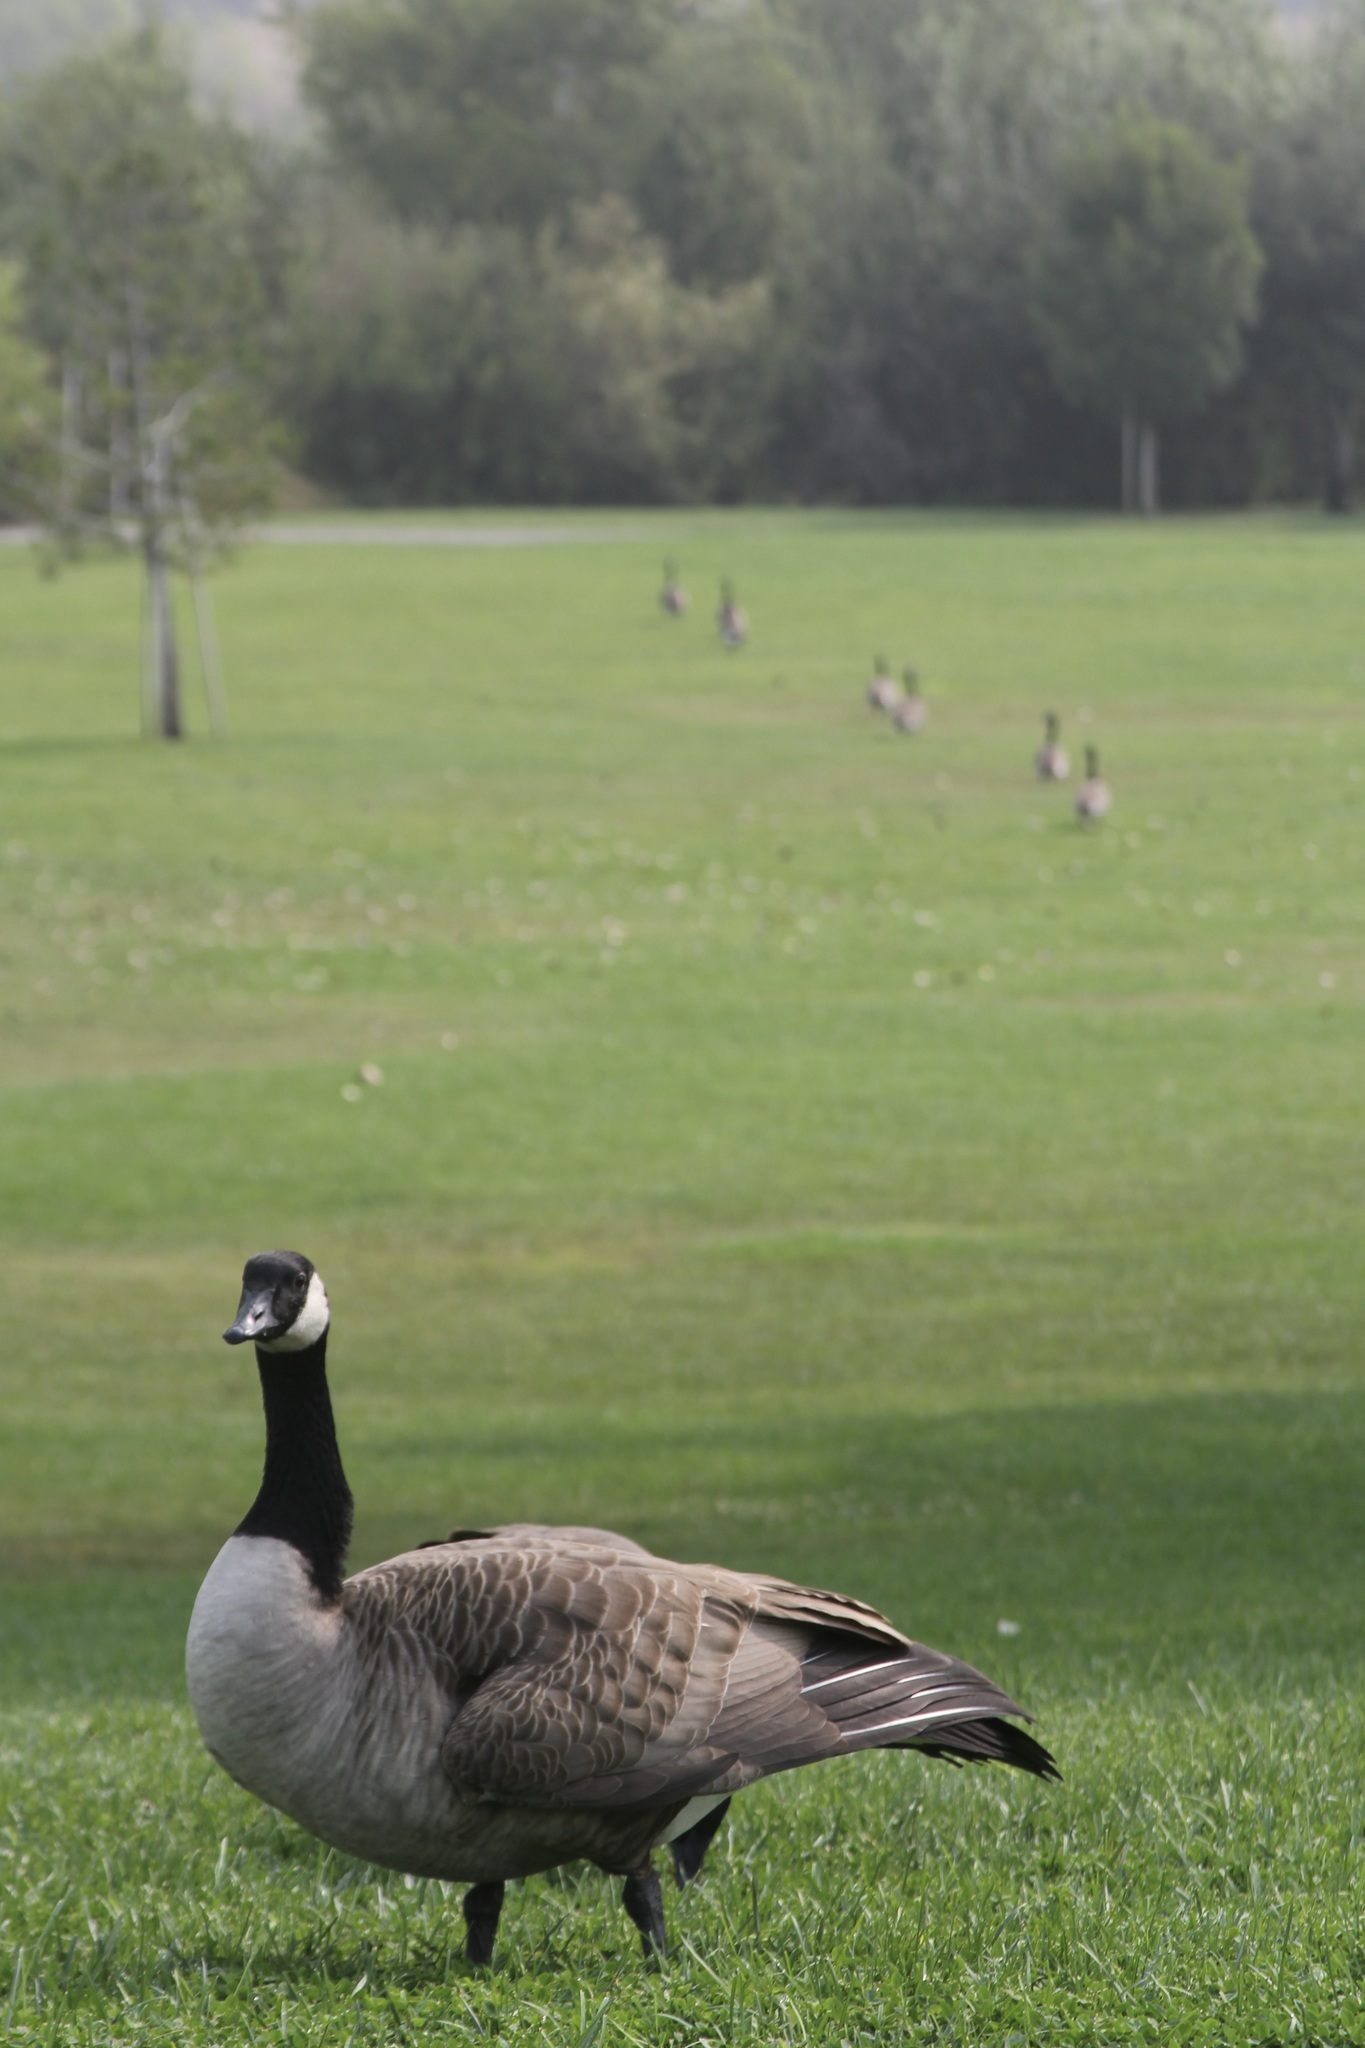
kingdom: Animalia
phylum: Chordata
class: Aves
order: Anseriformes
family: Anatidae
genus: Branta
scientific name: Branta canadensis
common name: Canada goose
